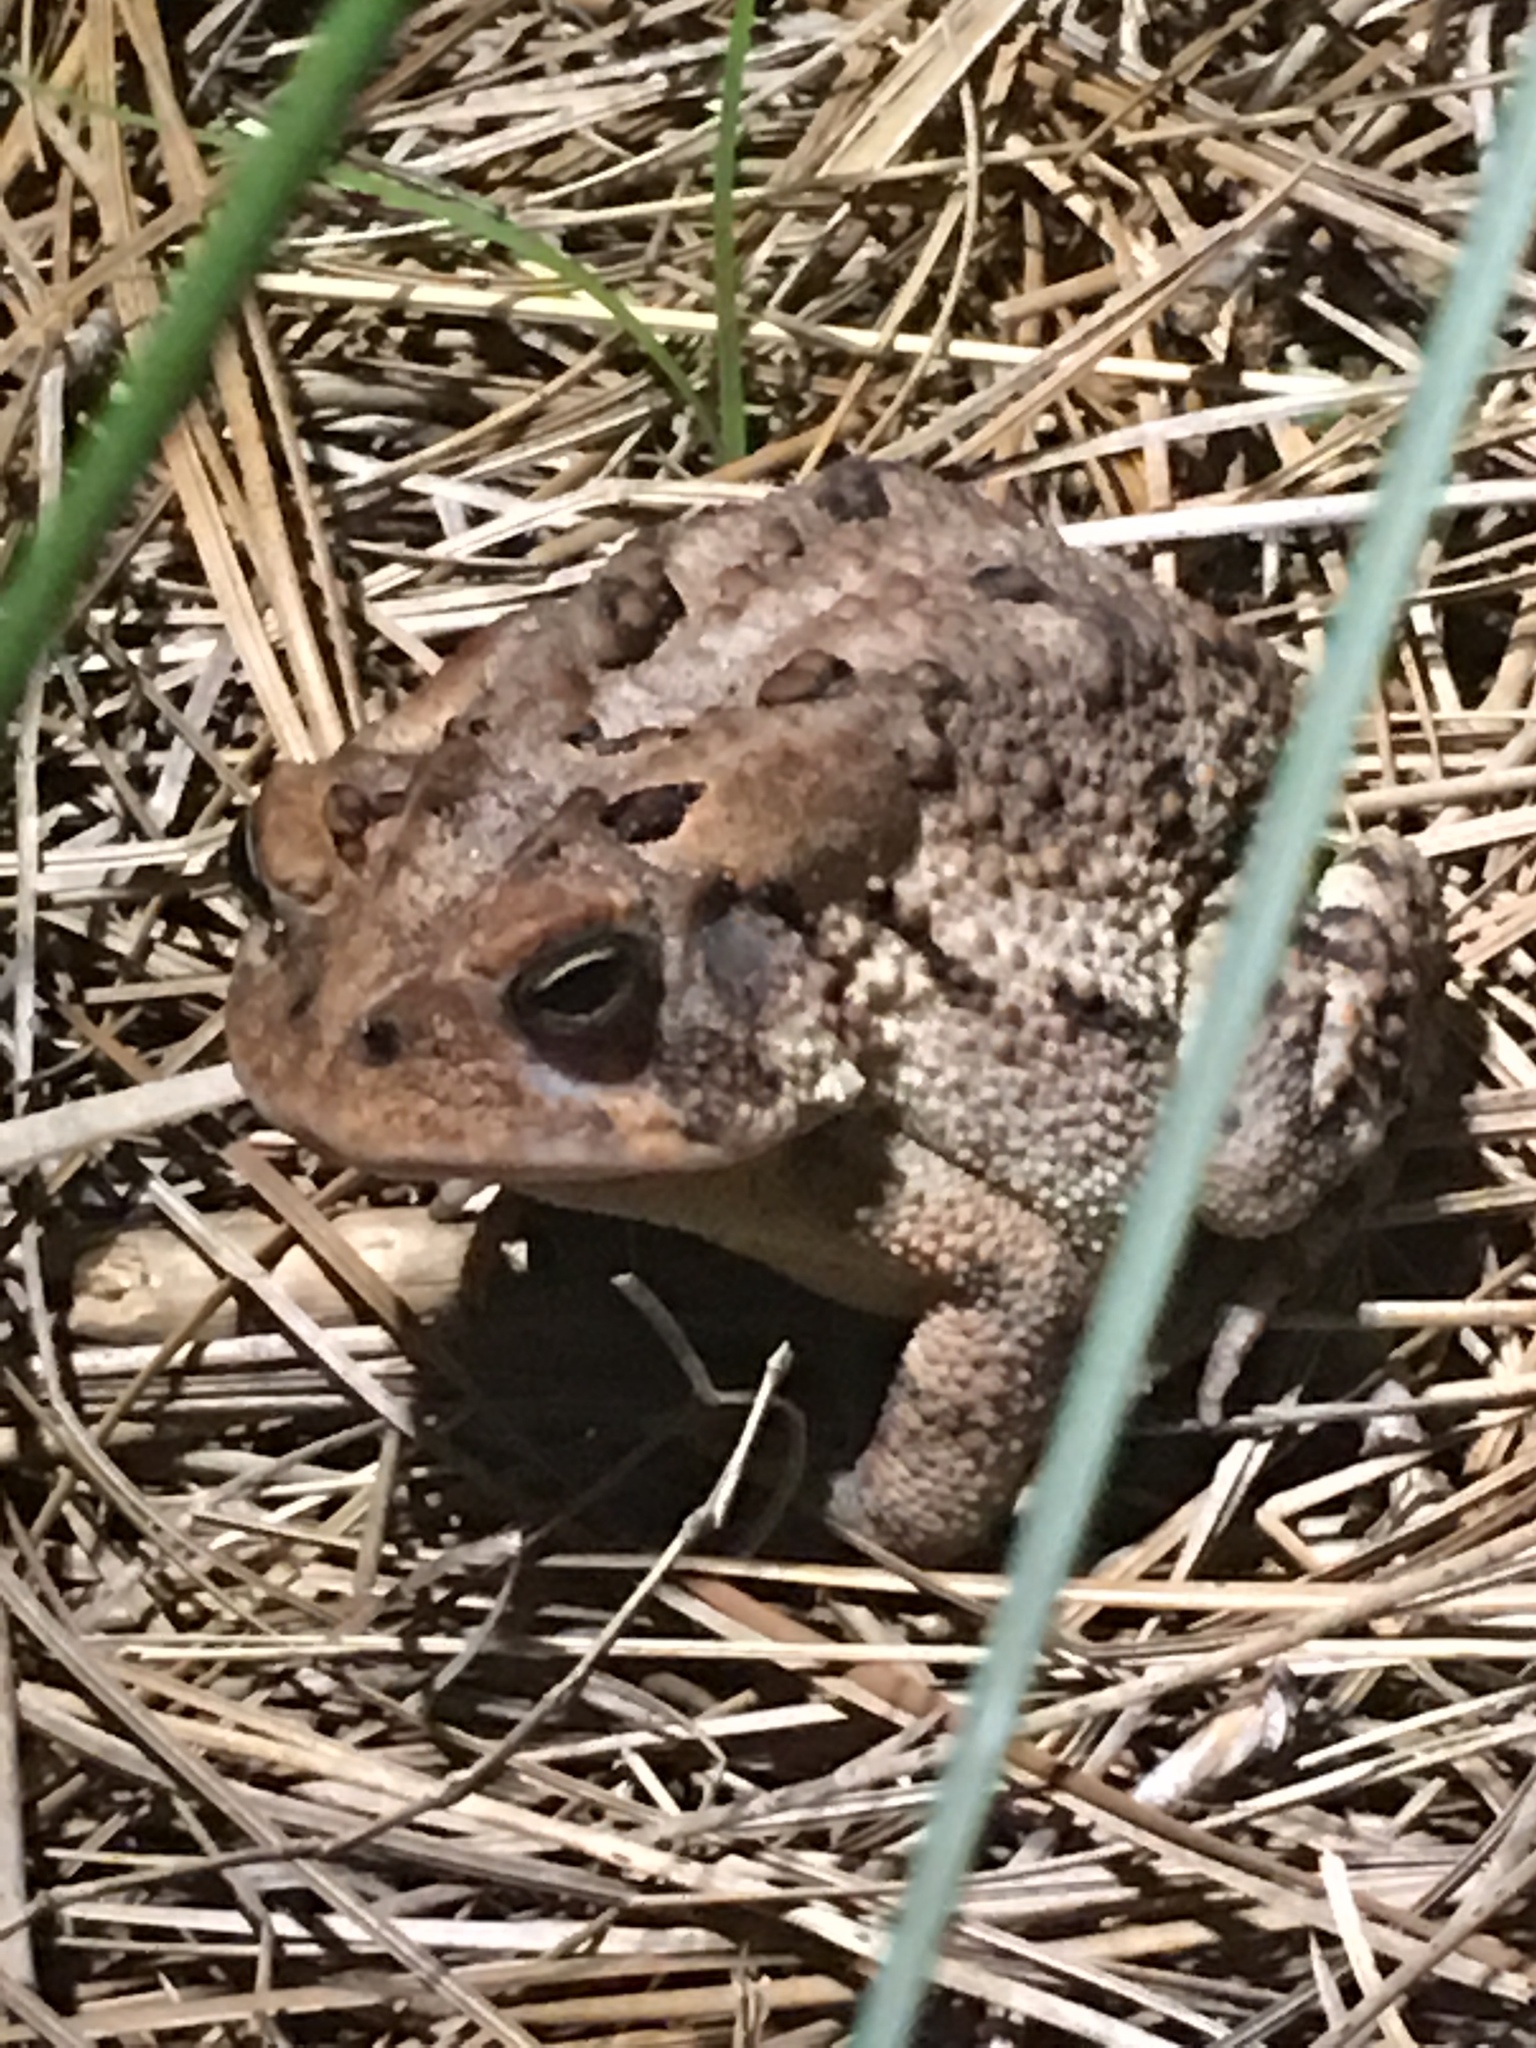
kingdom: Animalia
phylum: Chordata
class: Amphibia
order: Anura
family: Bufonidae
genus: Anaxyrus
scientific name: Anaxyrus terrestris
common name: Southern toad
